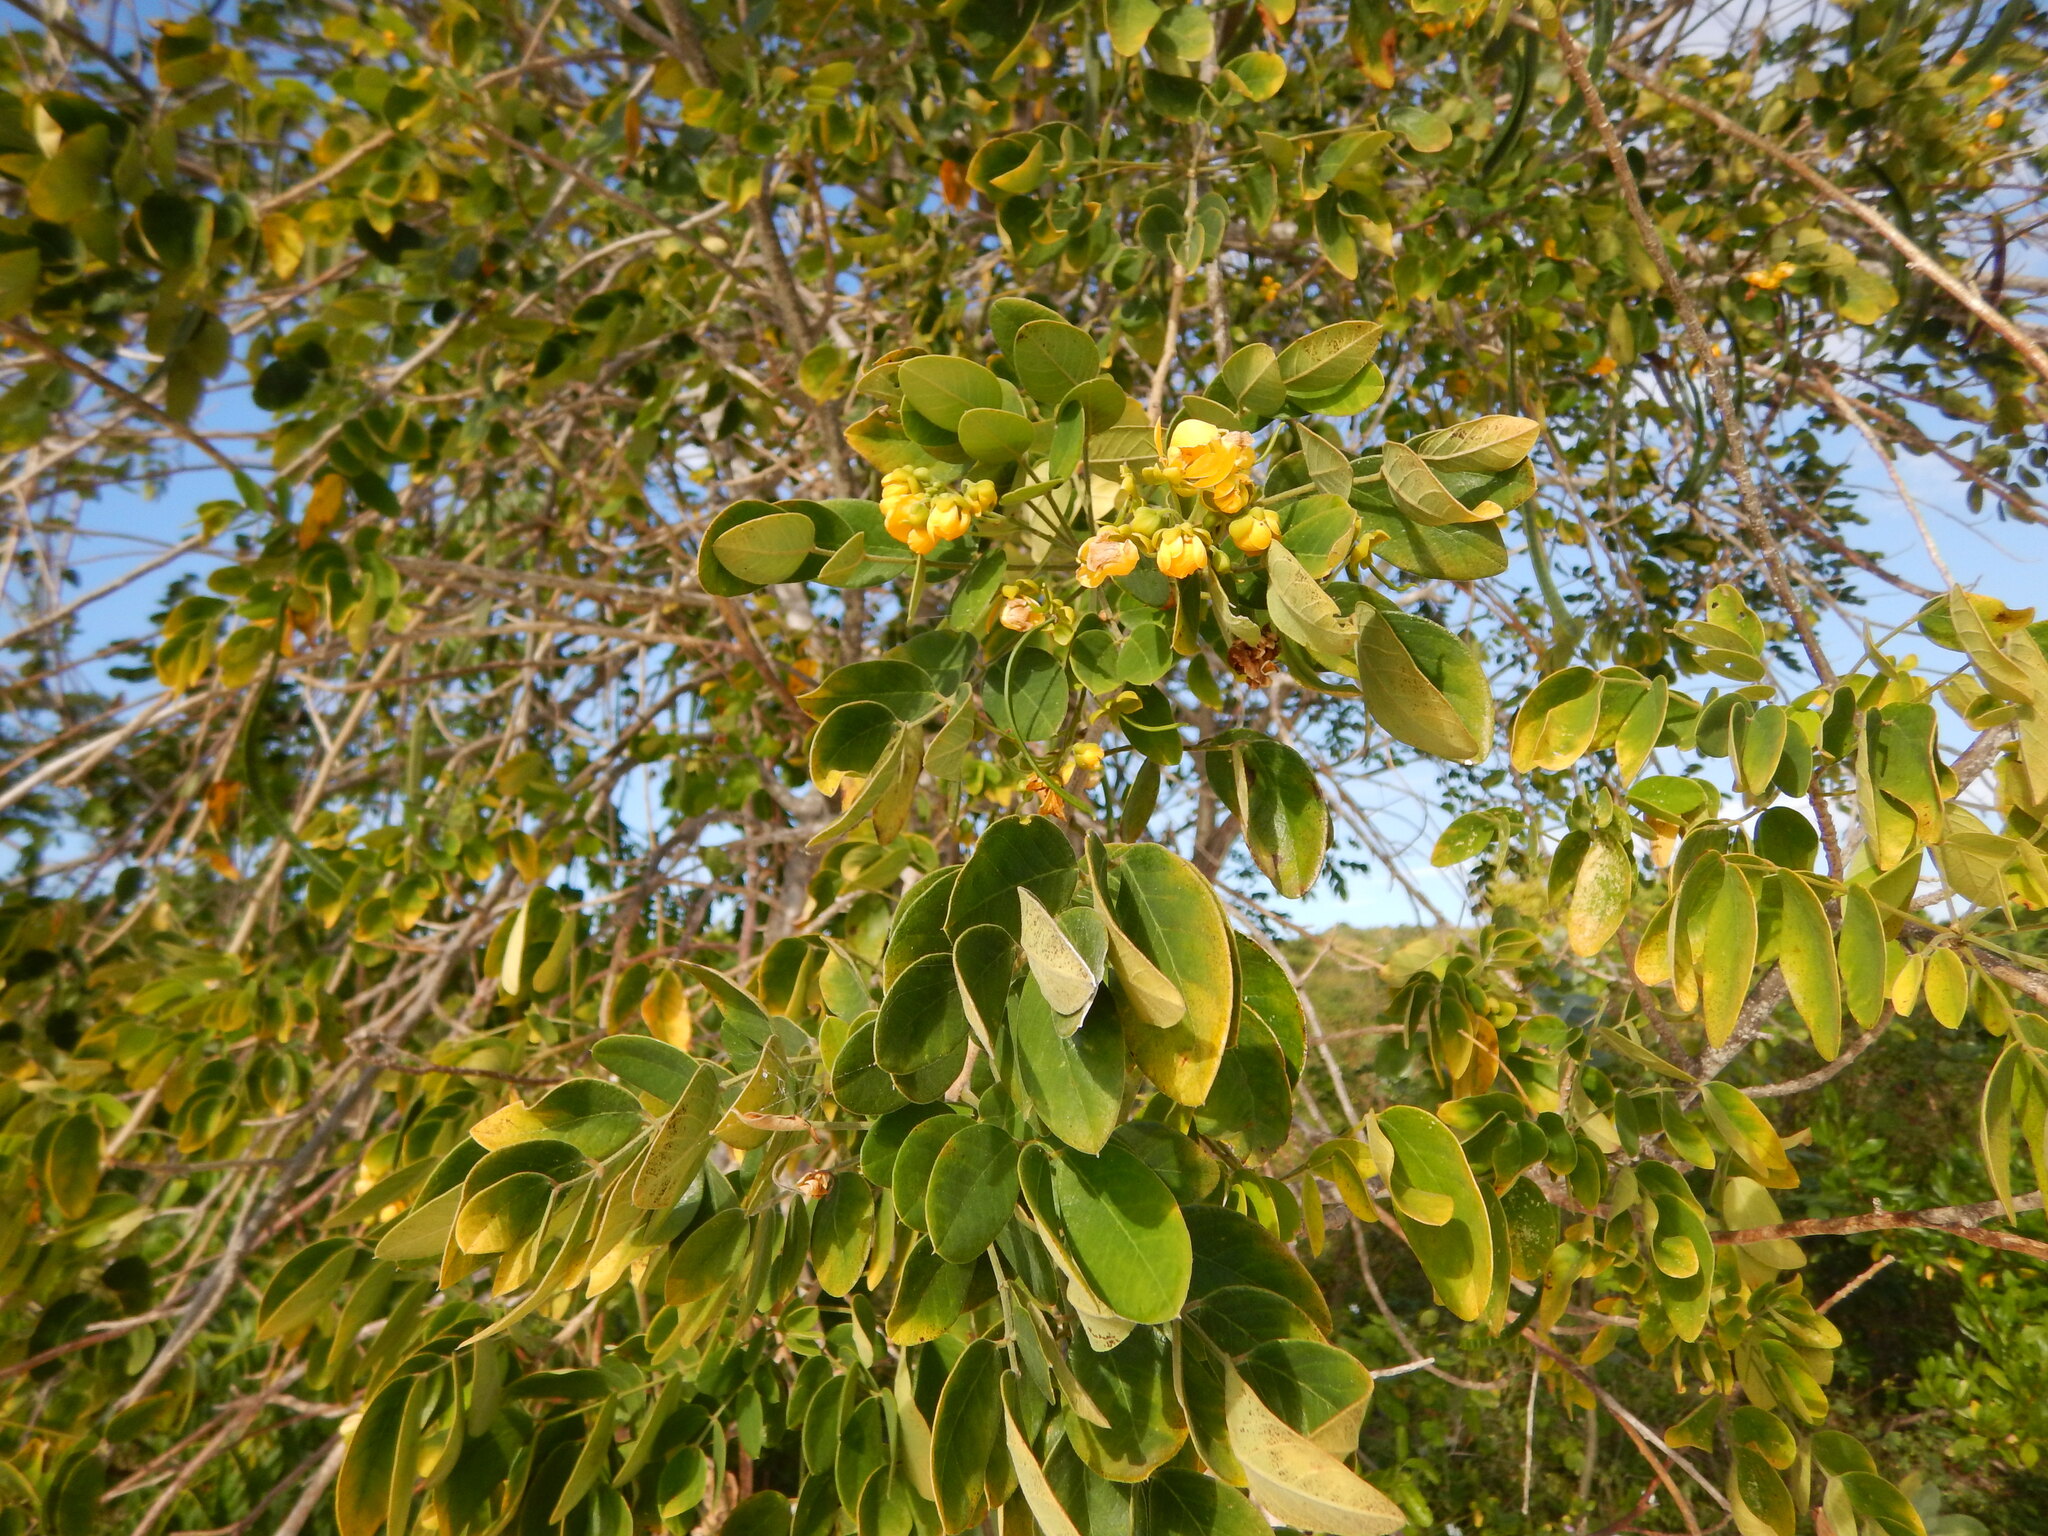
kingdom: Plantae
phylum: Tracheophyta
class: Magnoliopsida
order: Fabales
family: Fabaceae
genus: Senna
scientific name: Senna atomaria
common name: Flor de san jose
